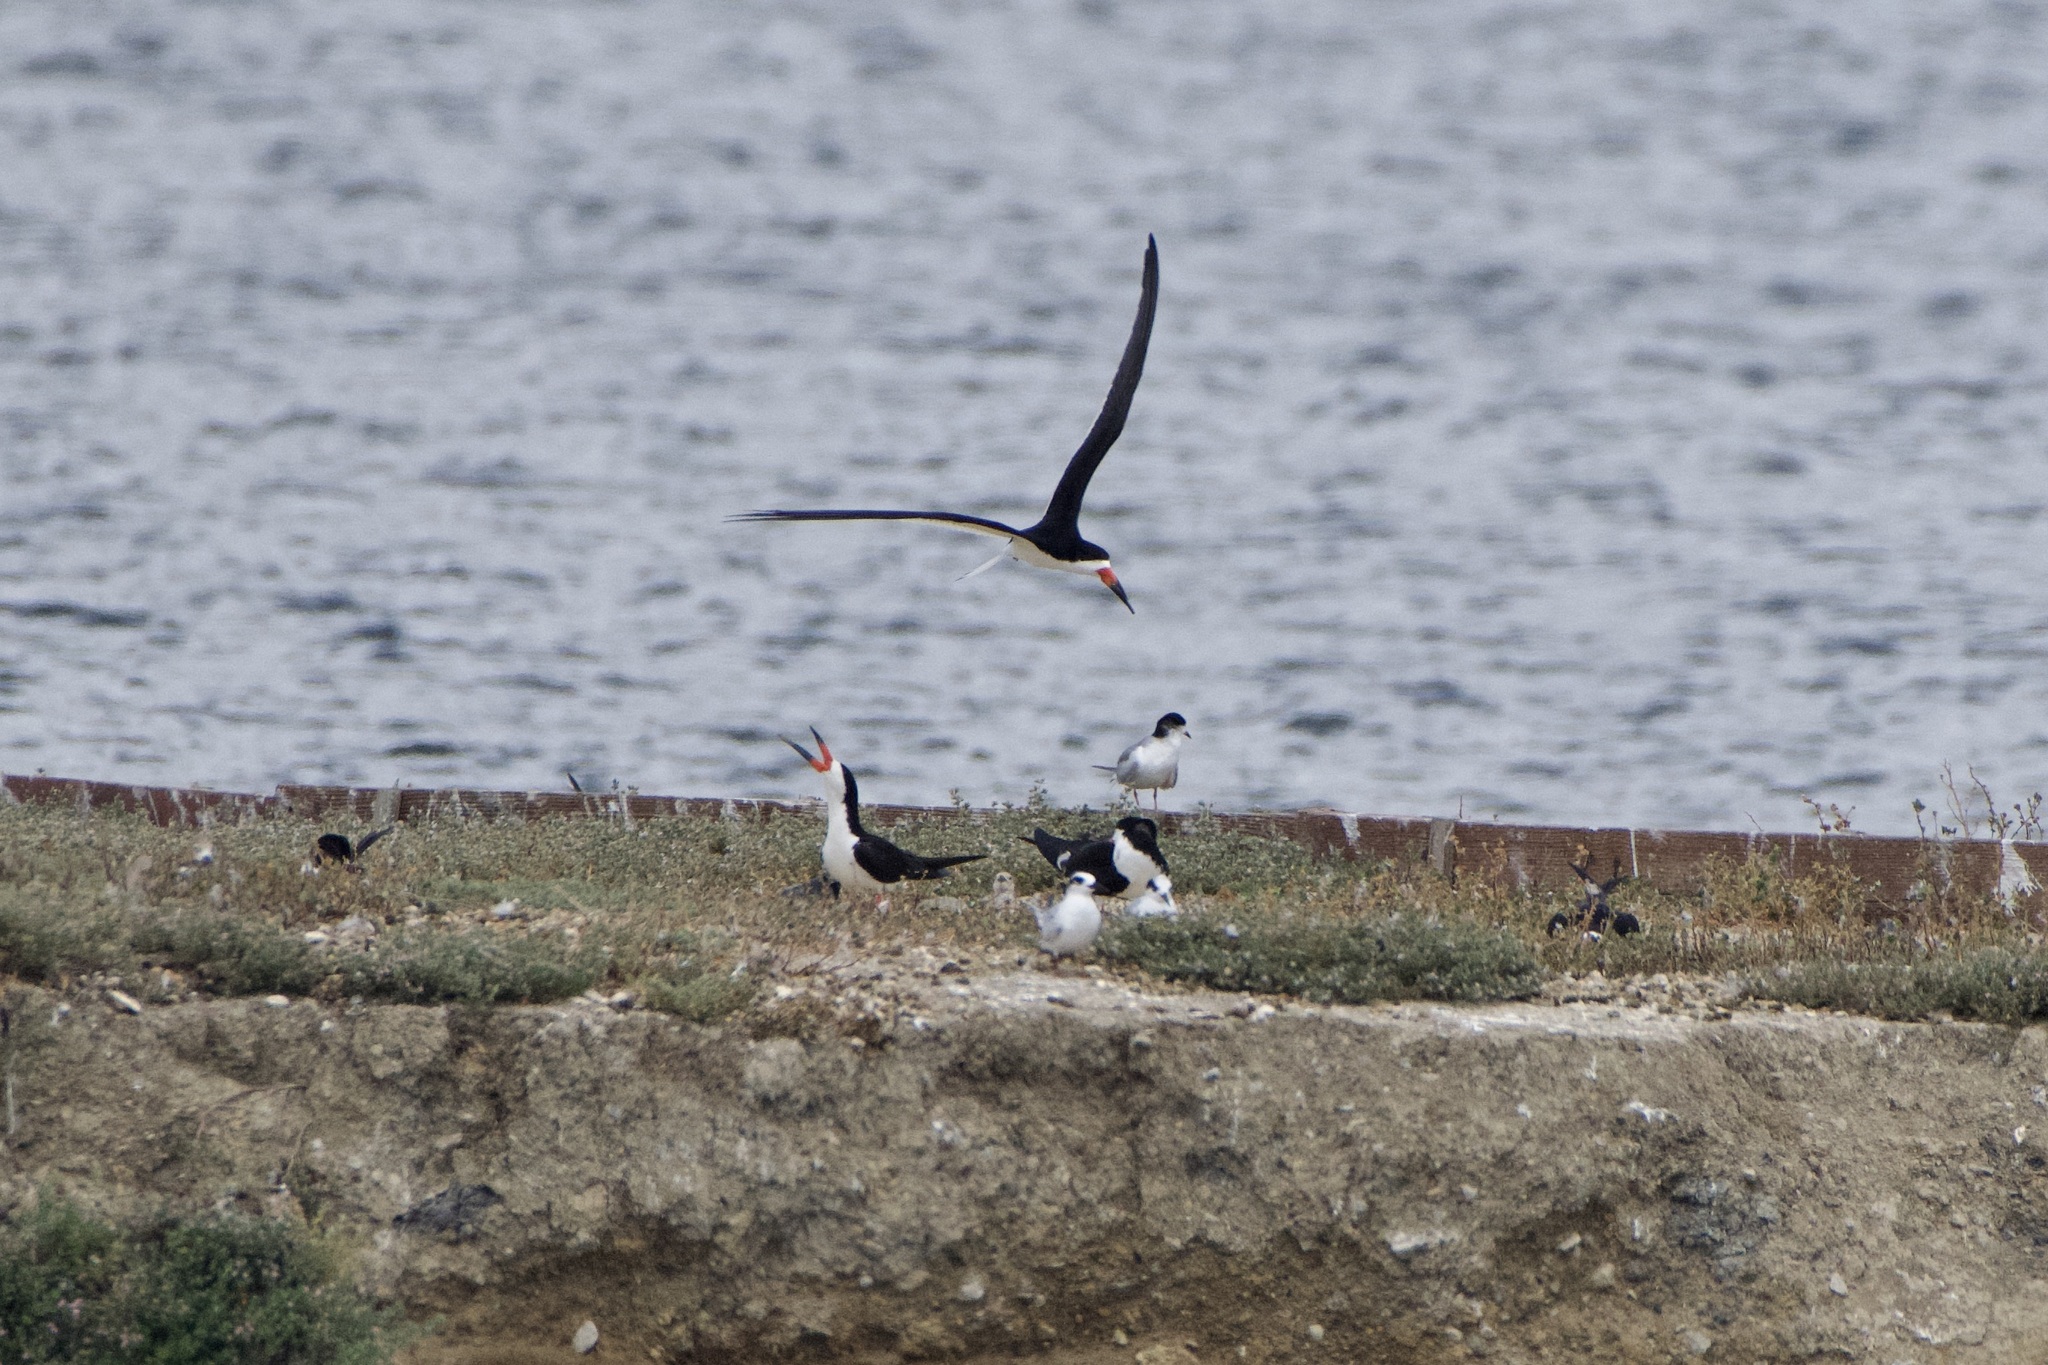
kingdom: Animalia
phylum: Chordata
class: Aves
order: Charadriiformes
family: Laridae
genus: Rynchops
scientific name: Rynchops niger
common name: Black skimmer
